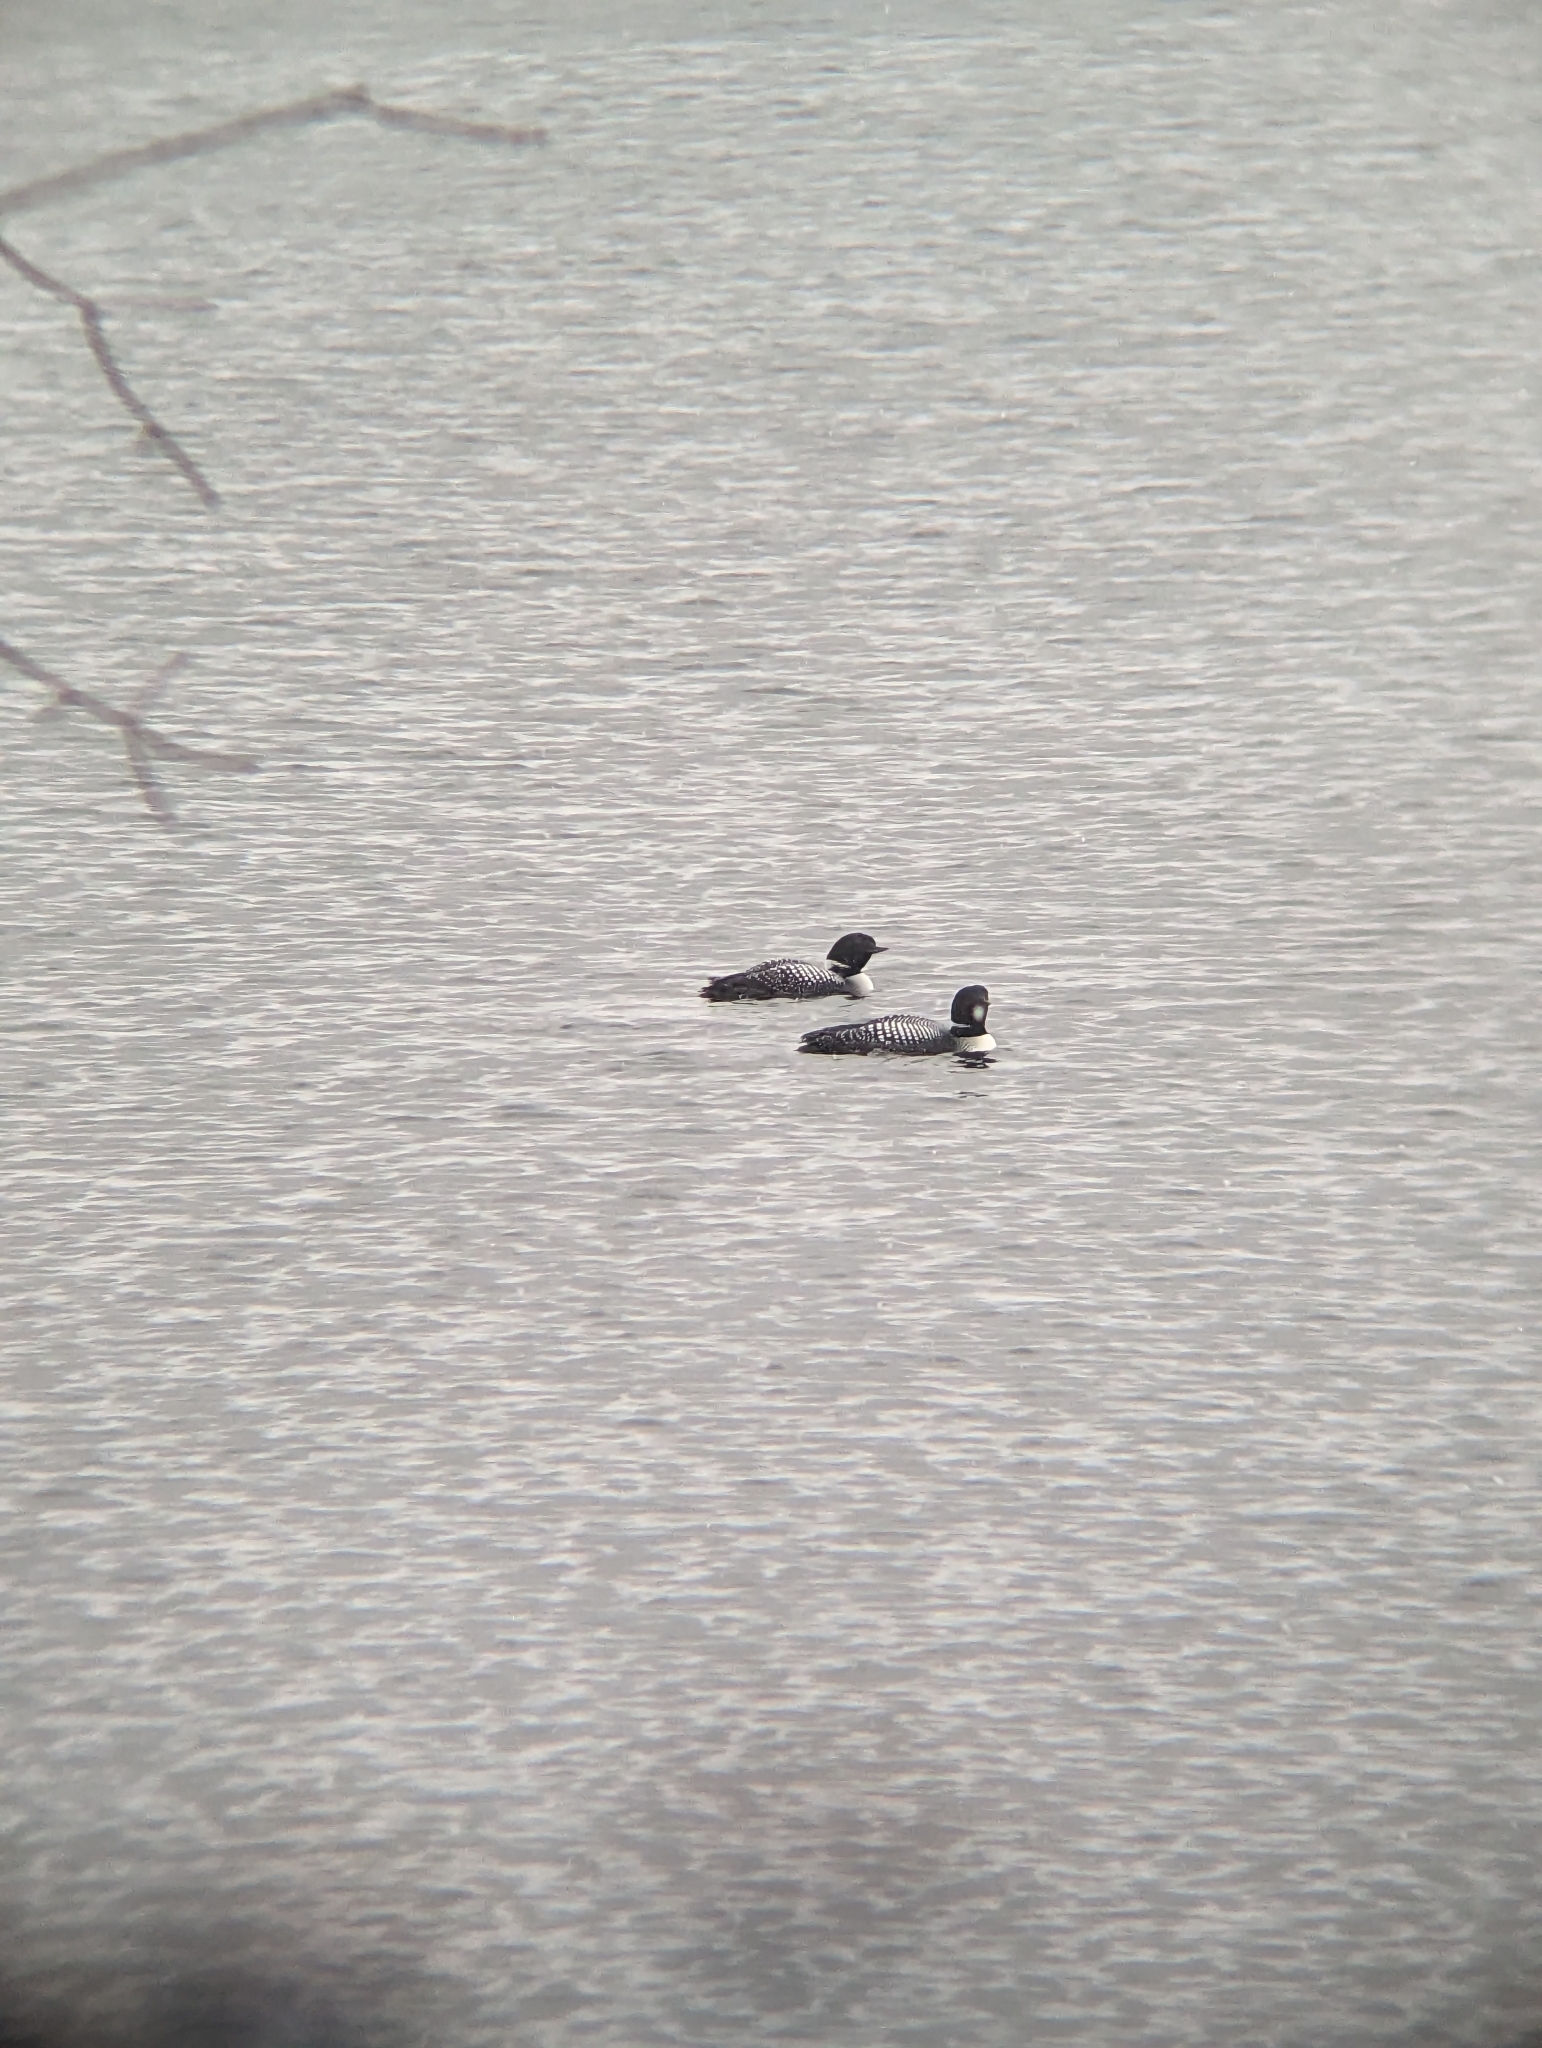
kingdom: Animalia
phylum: Chordata
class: Aves
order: Gaviiformes
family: Gaviidae
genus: Gavia
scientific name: Gavia immer
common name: Common loon
